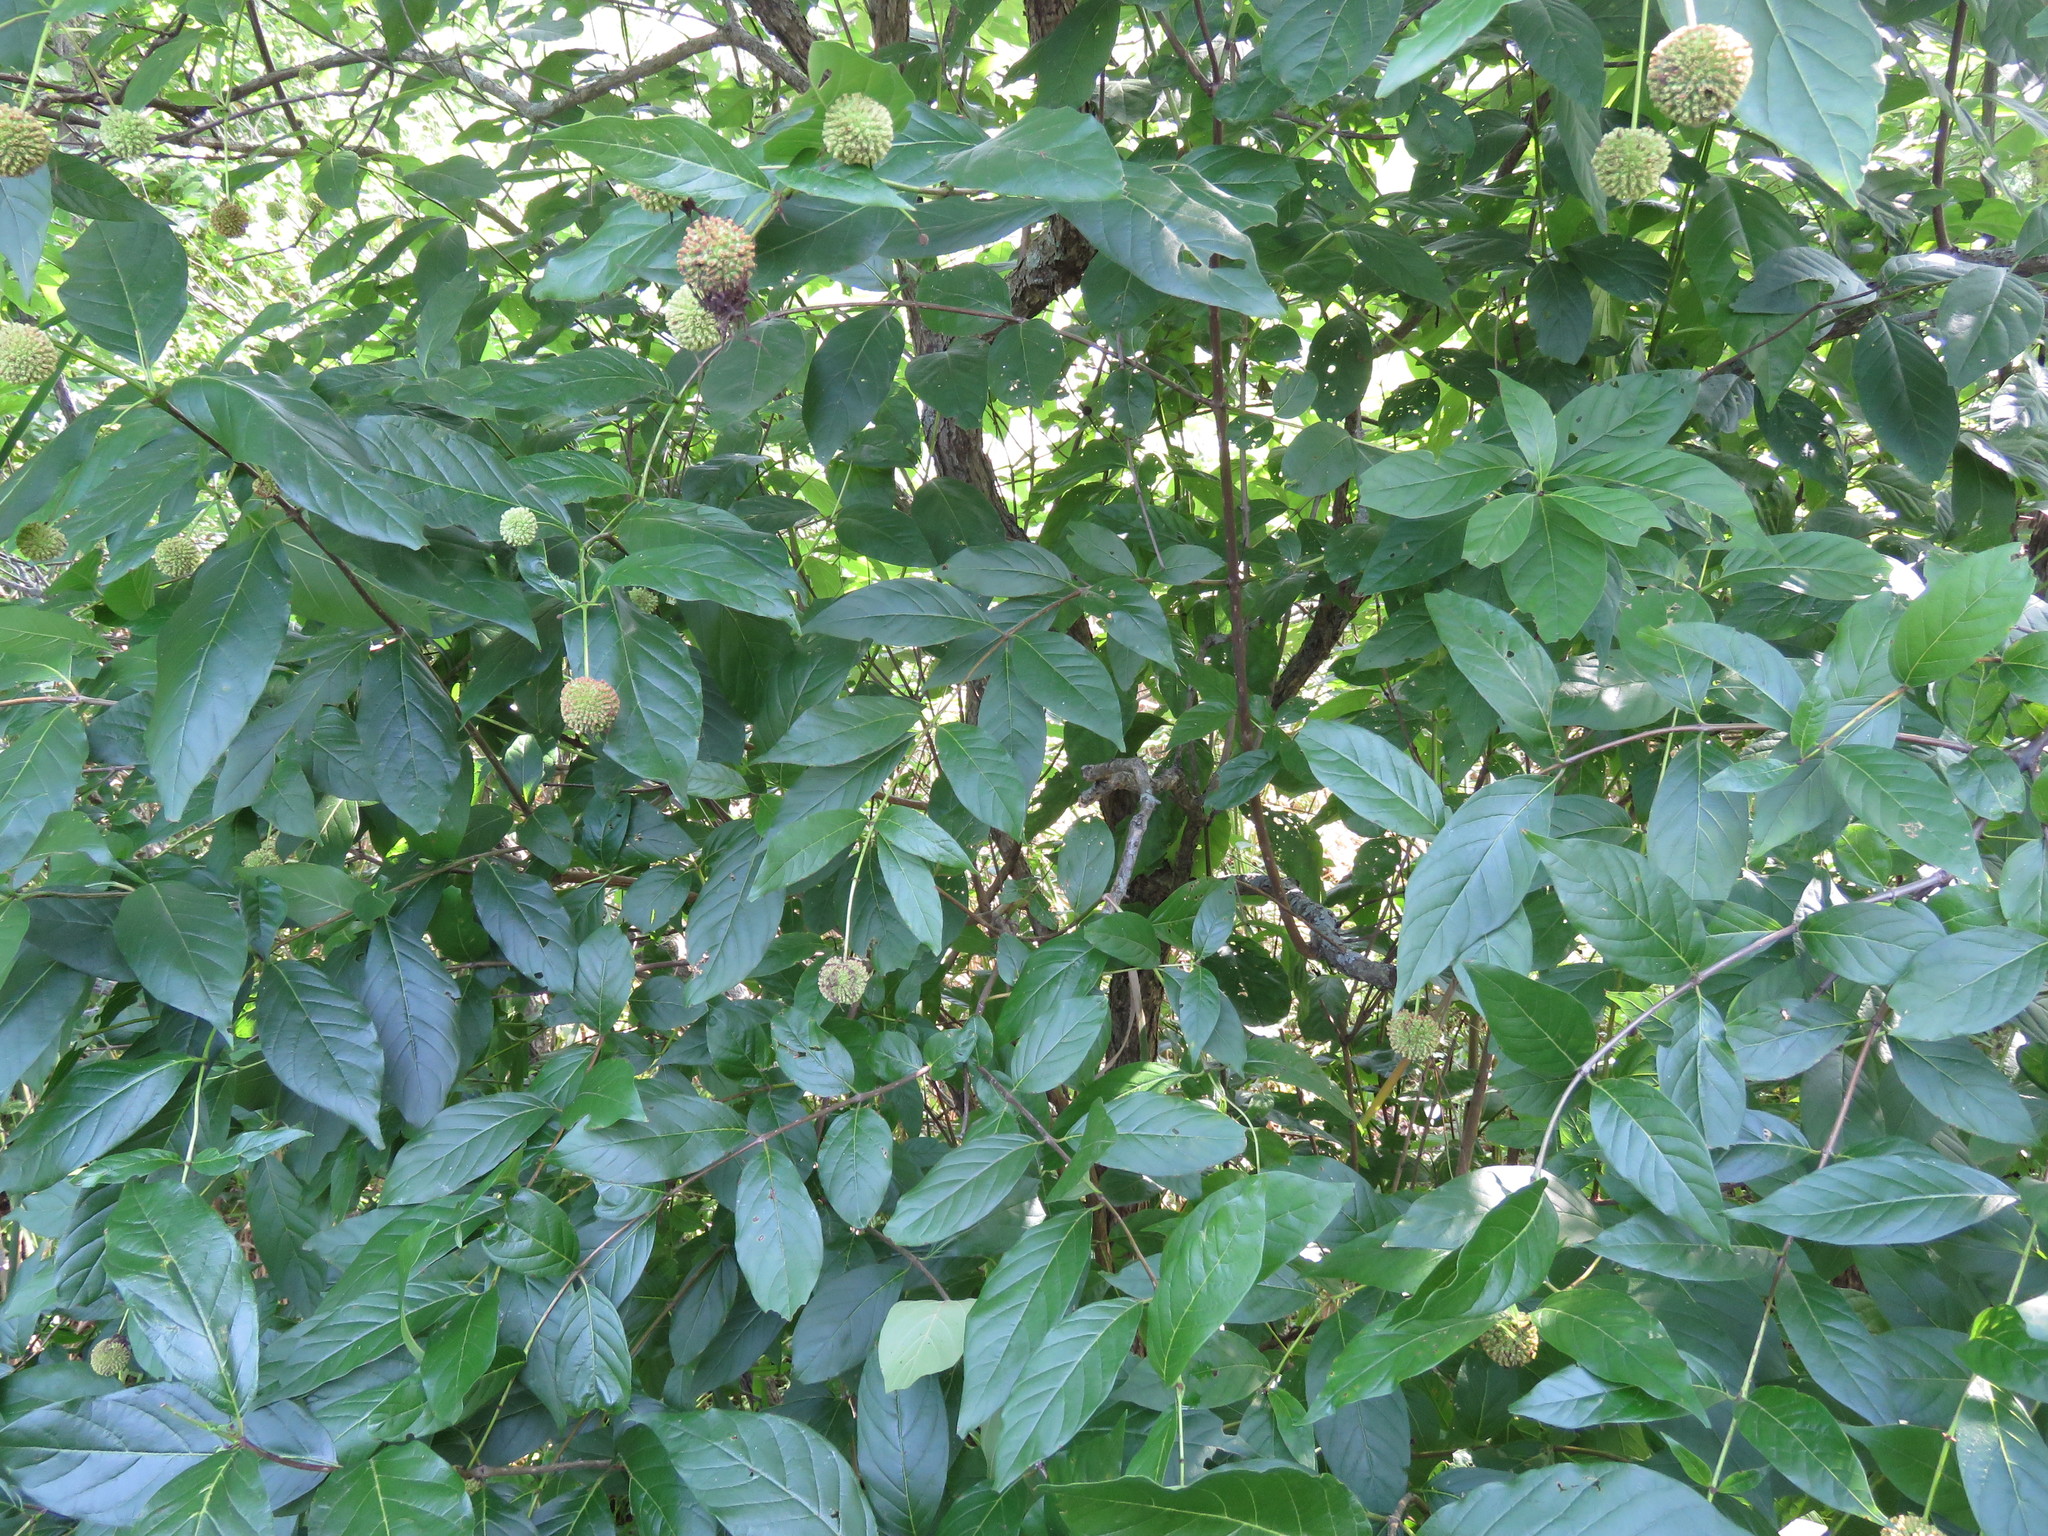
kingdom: Plantae
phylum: Tracheophyta
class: Magnoliopsida
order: Gentianales
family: Rubiaceae
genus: Cephalanthus
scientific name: Cephalanthus occidentalis
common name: Button-willow
